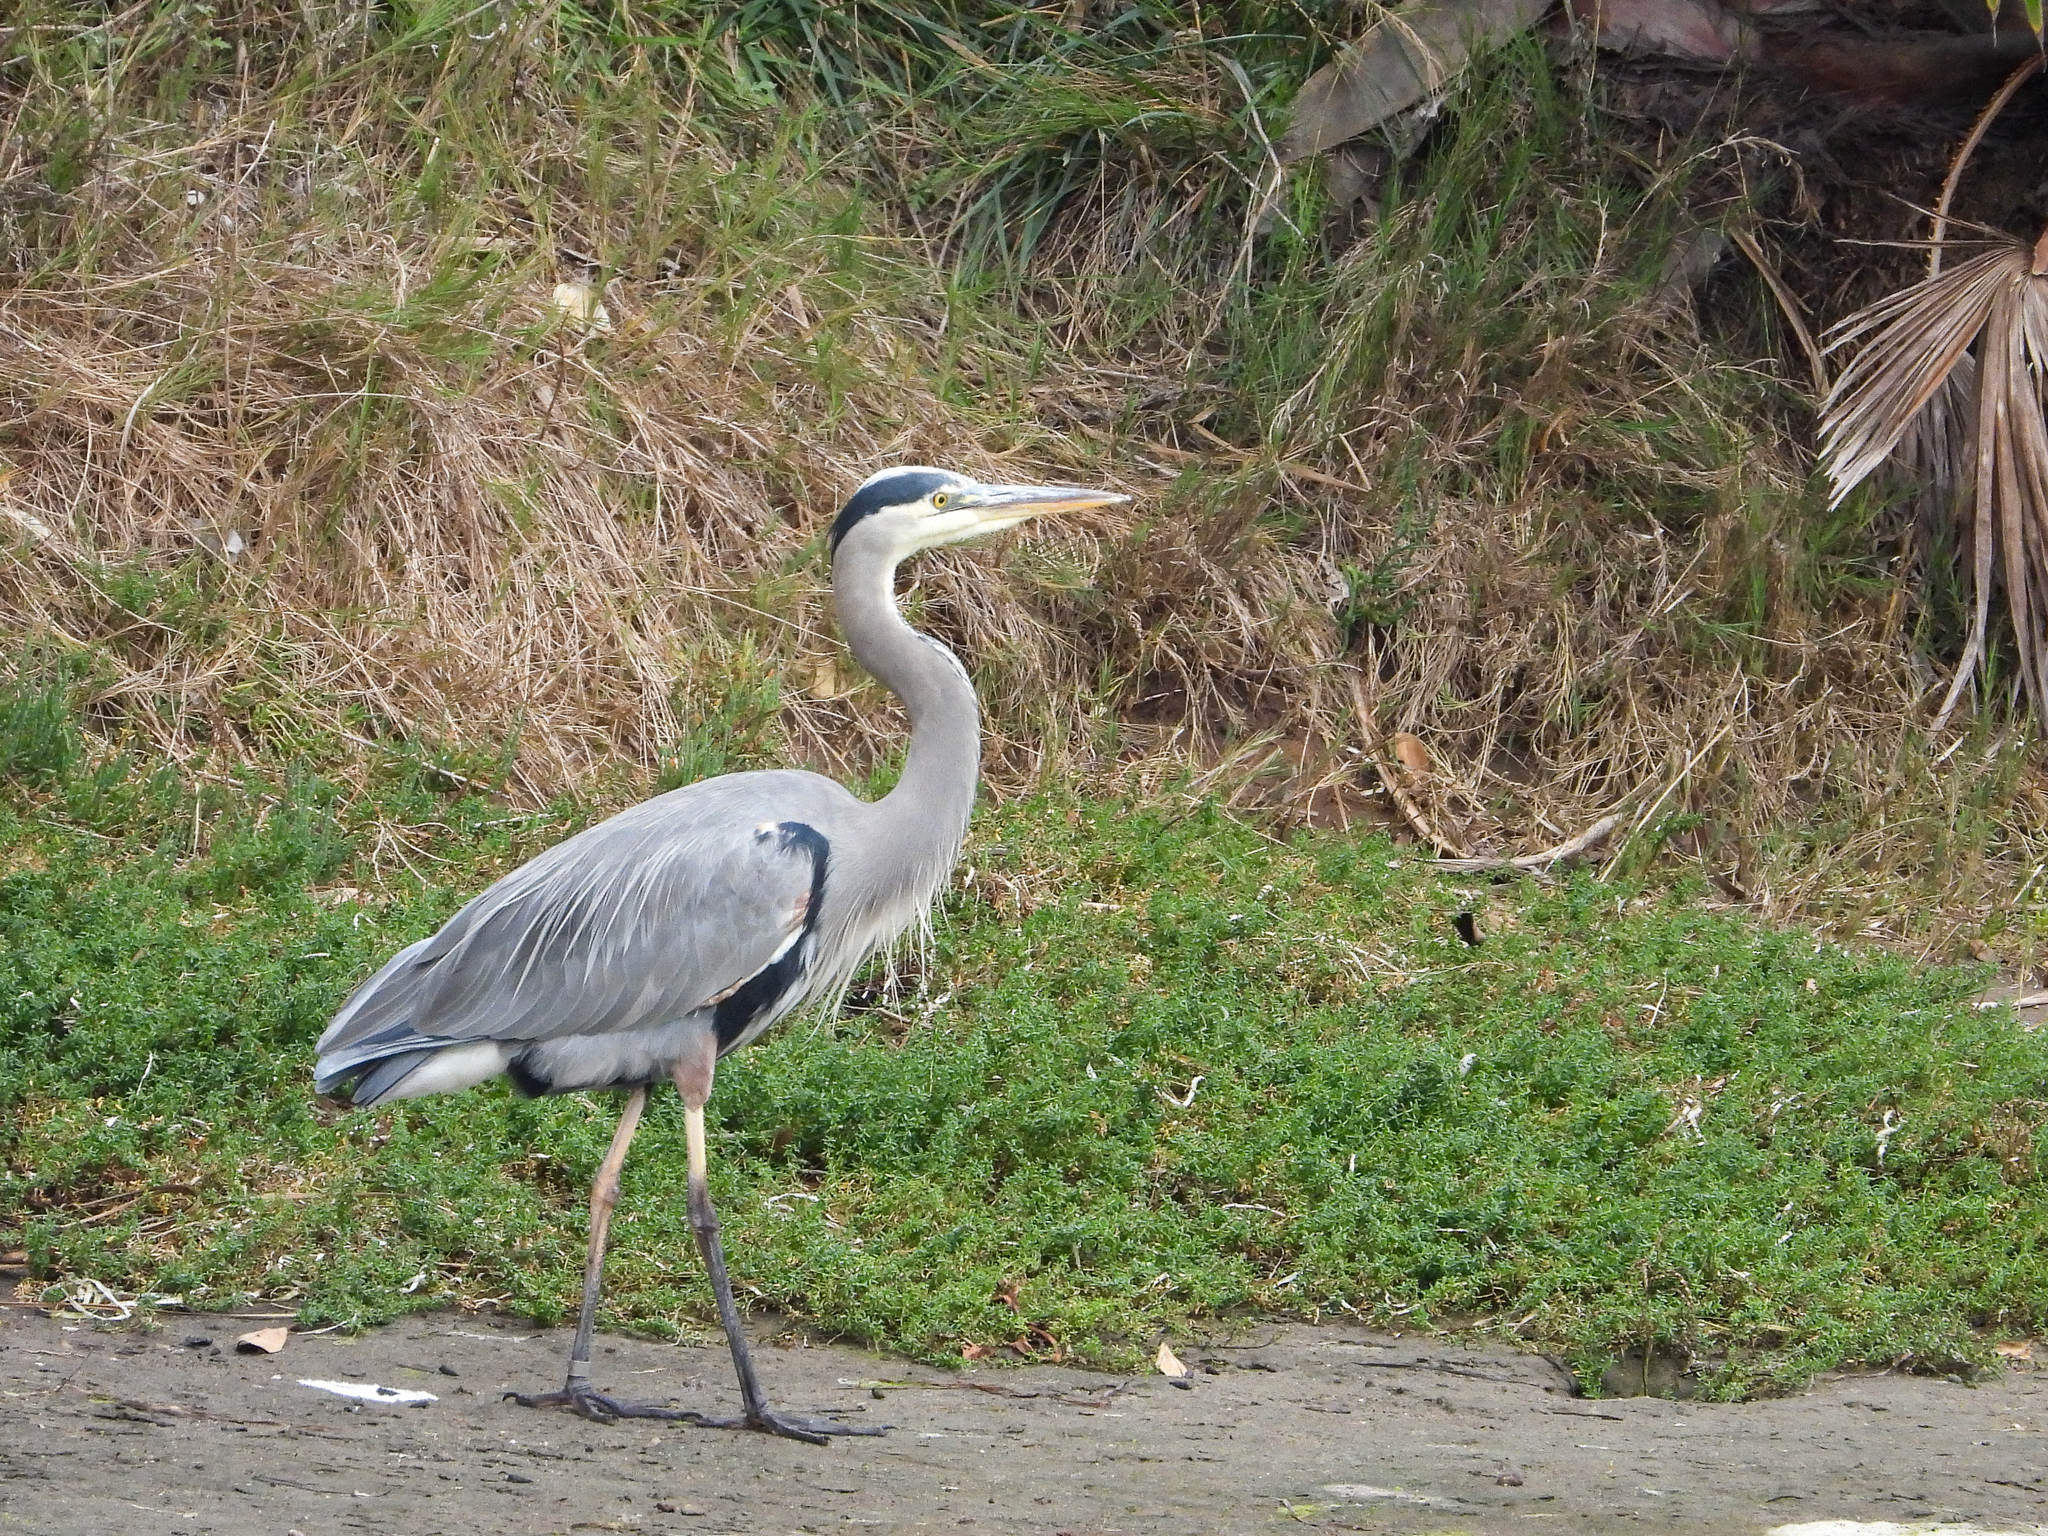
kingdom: Animalia
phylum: Chordata
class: Aves
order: Pelecaniformes
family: Ardeidae
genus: Ardea
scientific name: Ardea herodias
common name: Great blue heron
